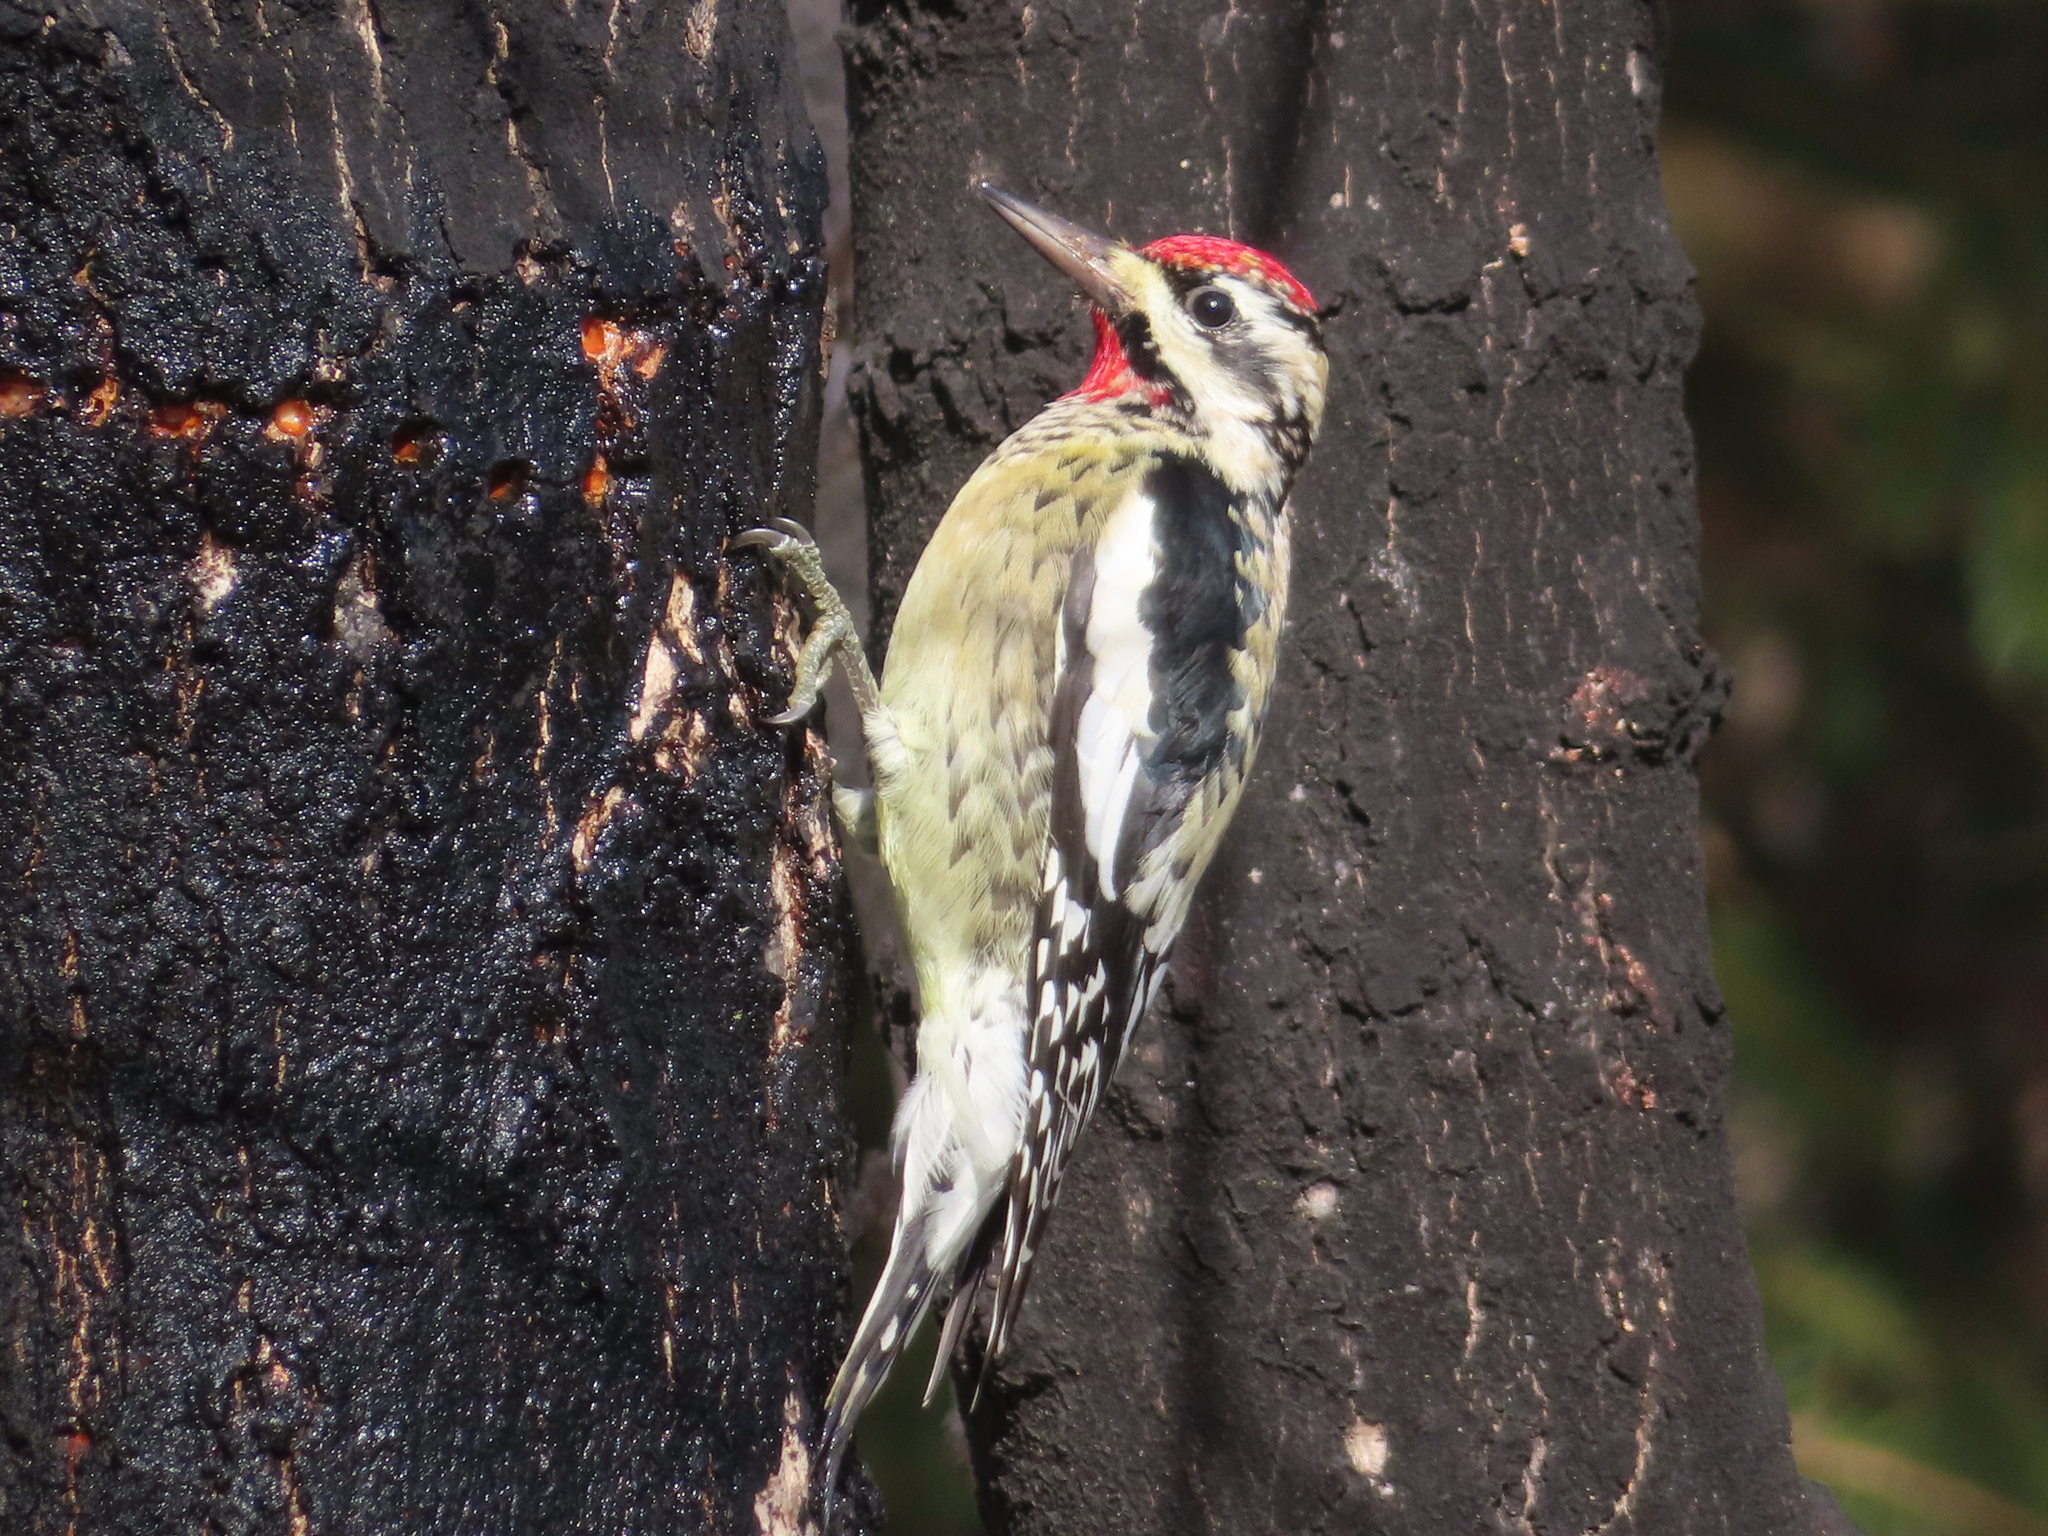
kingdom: Animalia
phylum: Chordata
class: Aves
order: Piciformes
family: Picidae
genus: Sphyrapicus
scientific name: Sphyrapicus varius
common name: Yellow-bellied sapsucker
